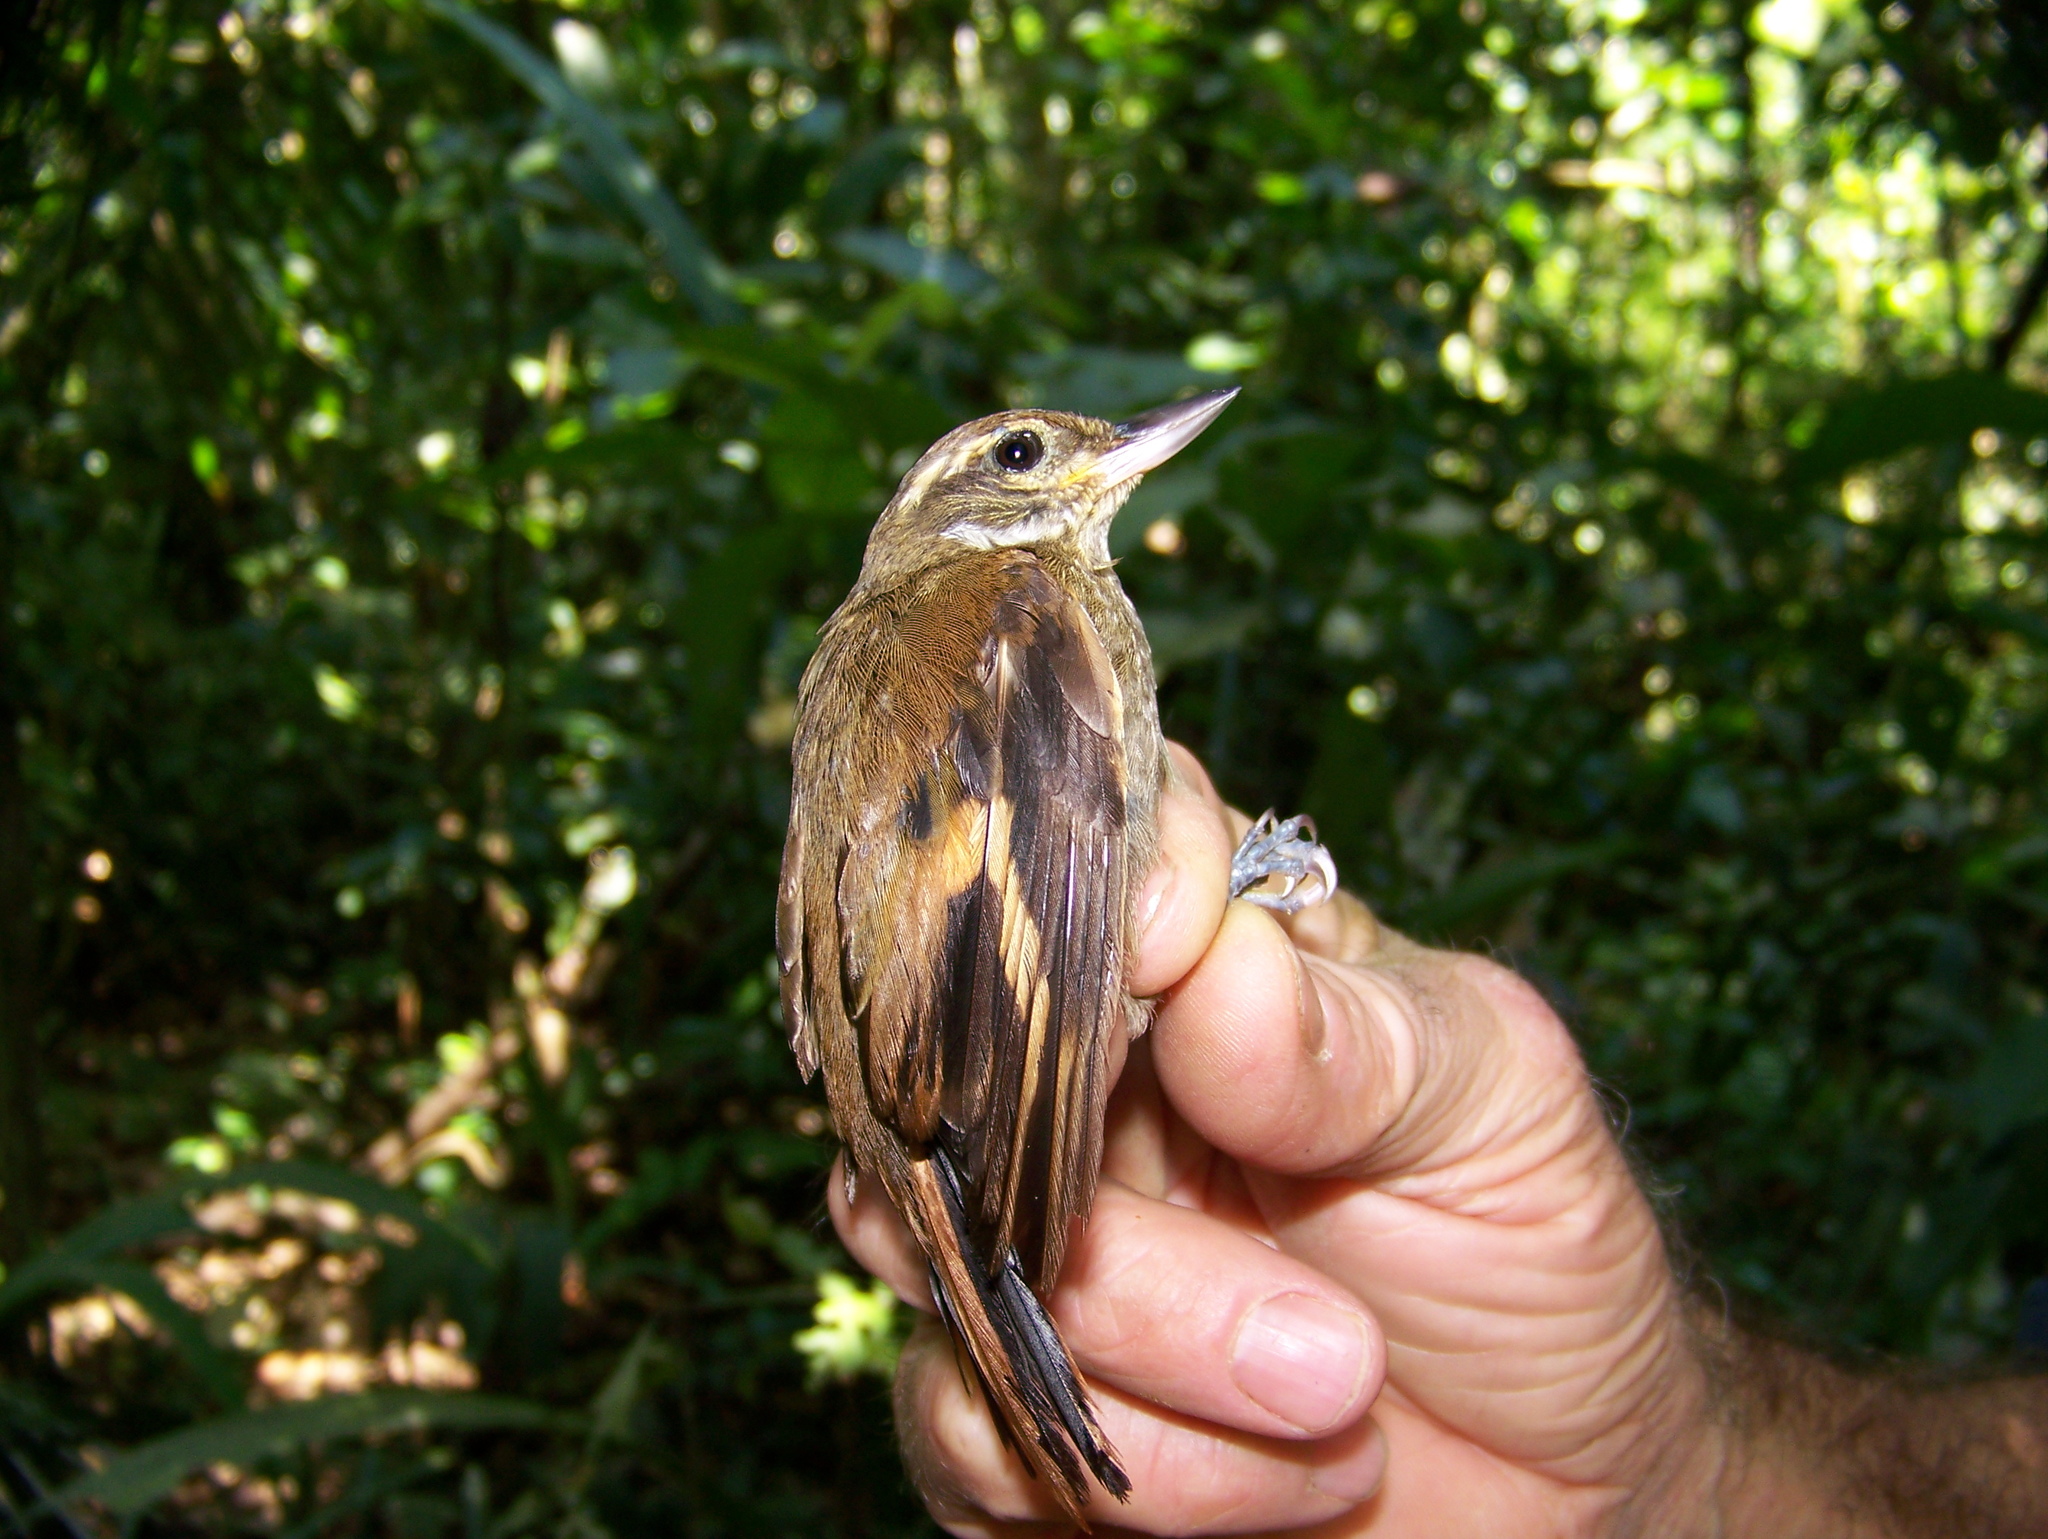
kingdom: Animalia
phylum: Chordata
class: Aves
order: Passeriformes
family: Furnariidae
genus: Xenops
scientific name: Xenops minutus
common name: Plain xenops
